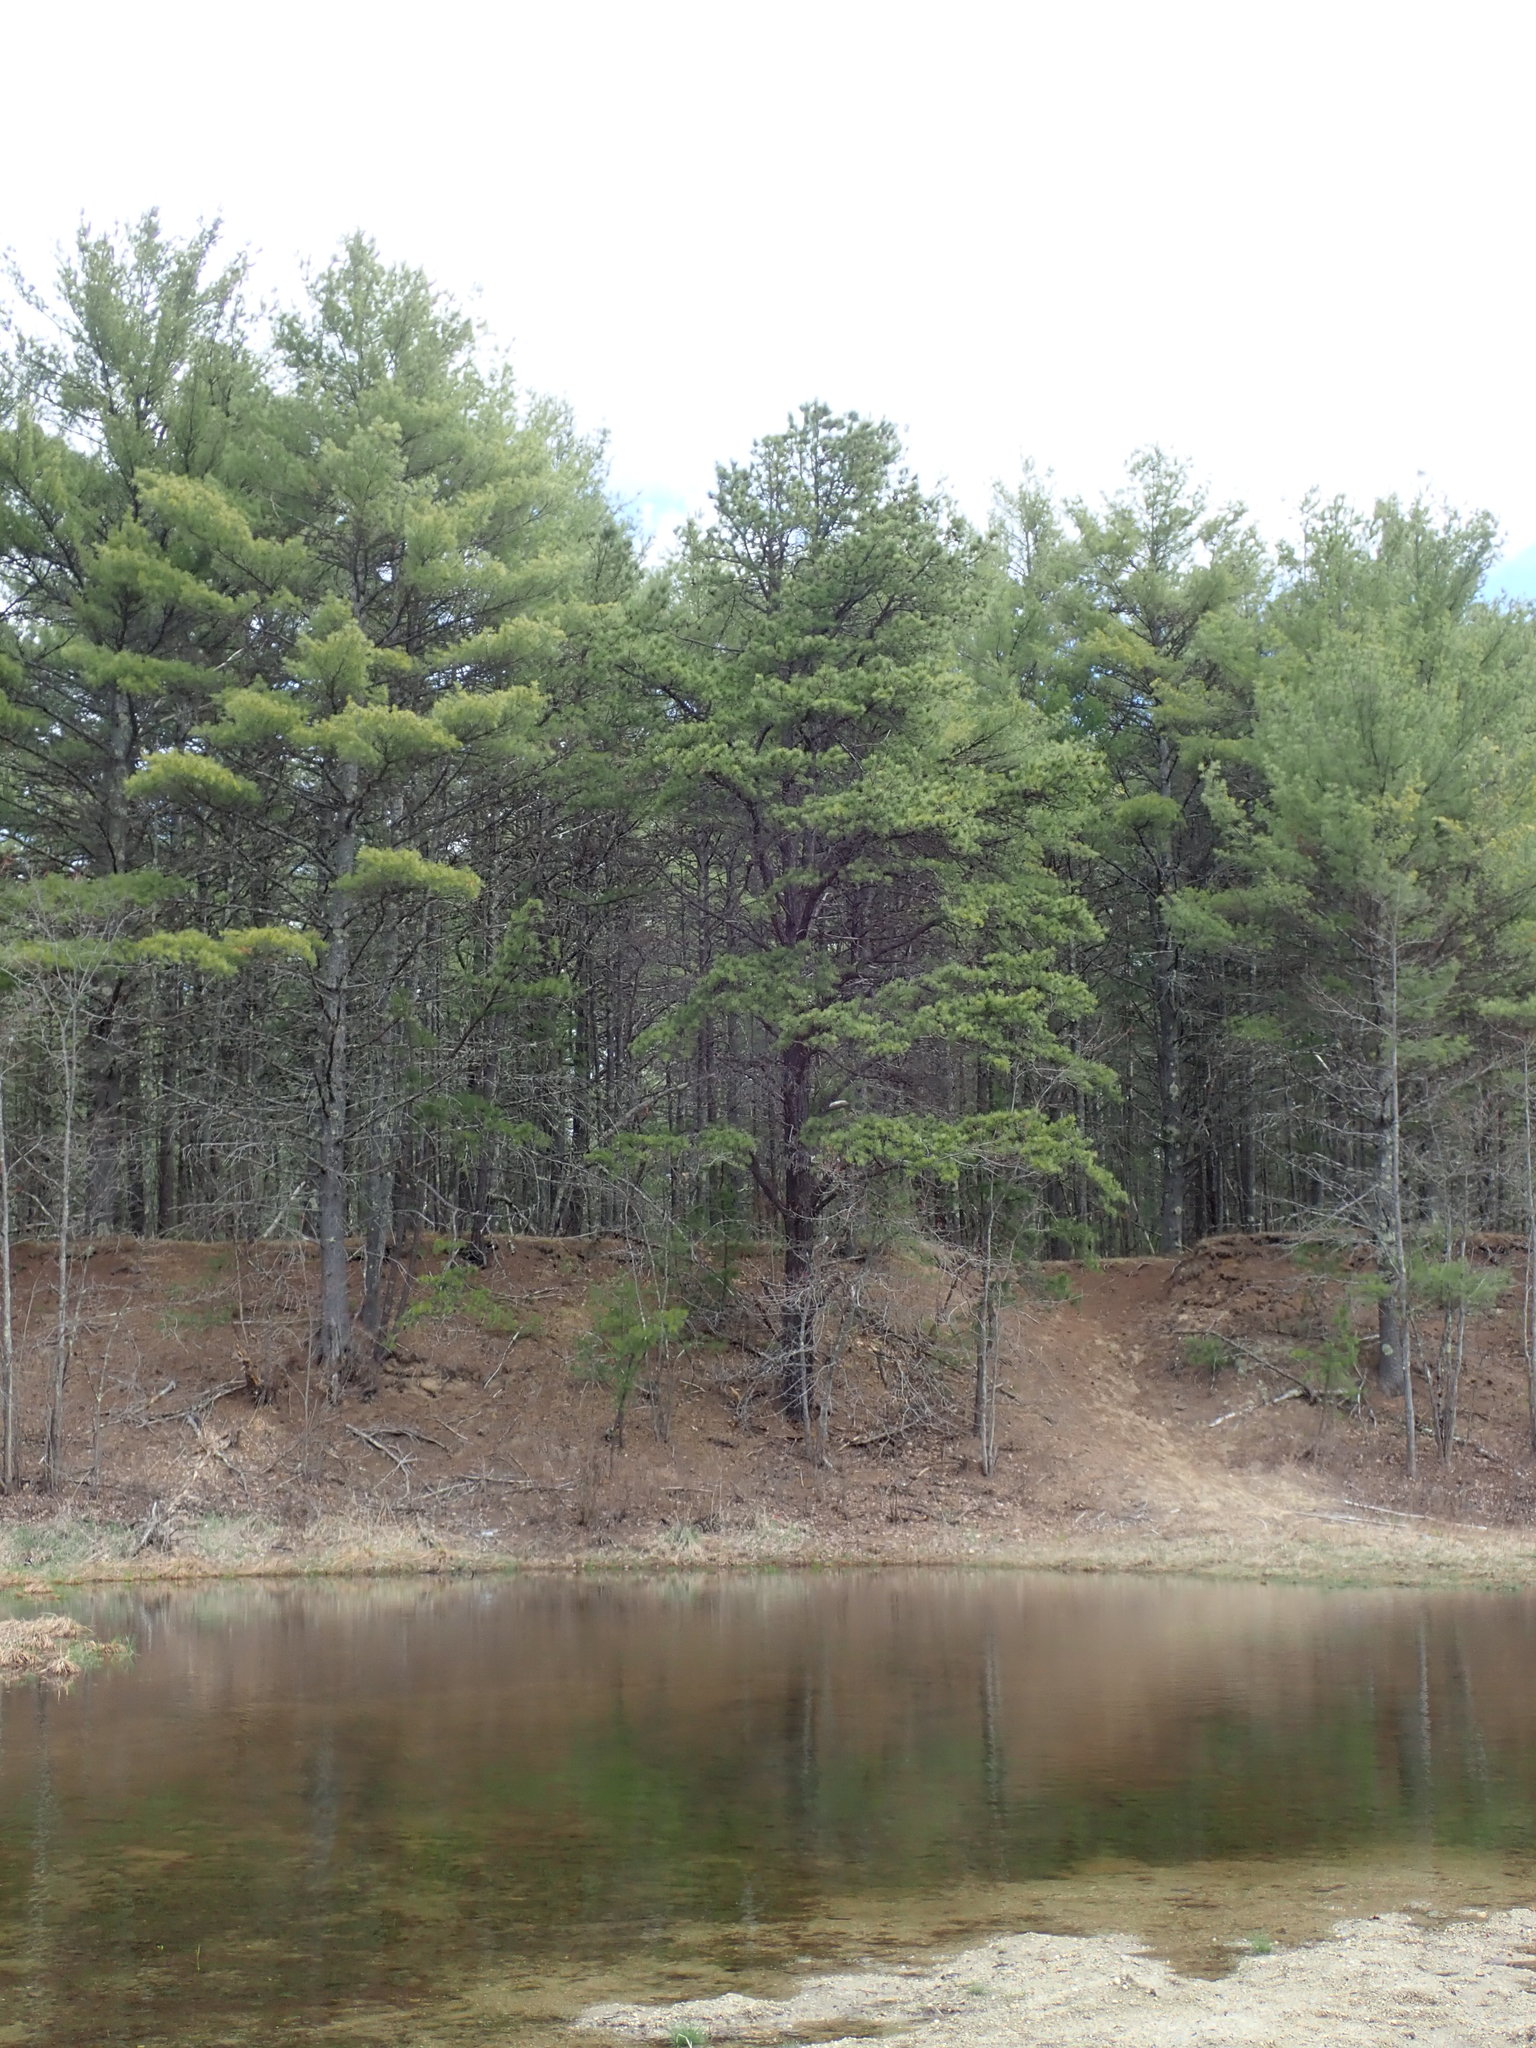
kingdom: Plantae
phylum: Tracheophyta
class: Pinopsida
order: Pinales
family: Pinaceae
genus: Pinus
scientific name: Pinus rigida
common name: Pitch pine
